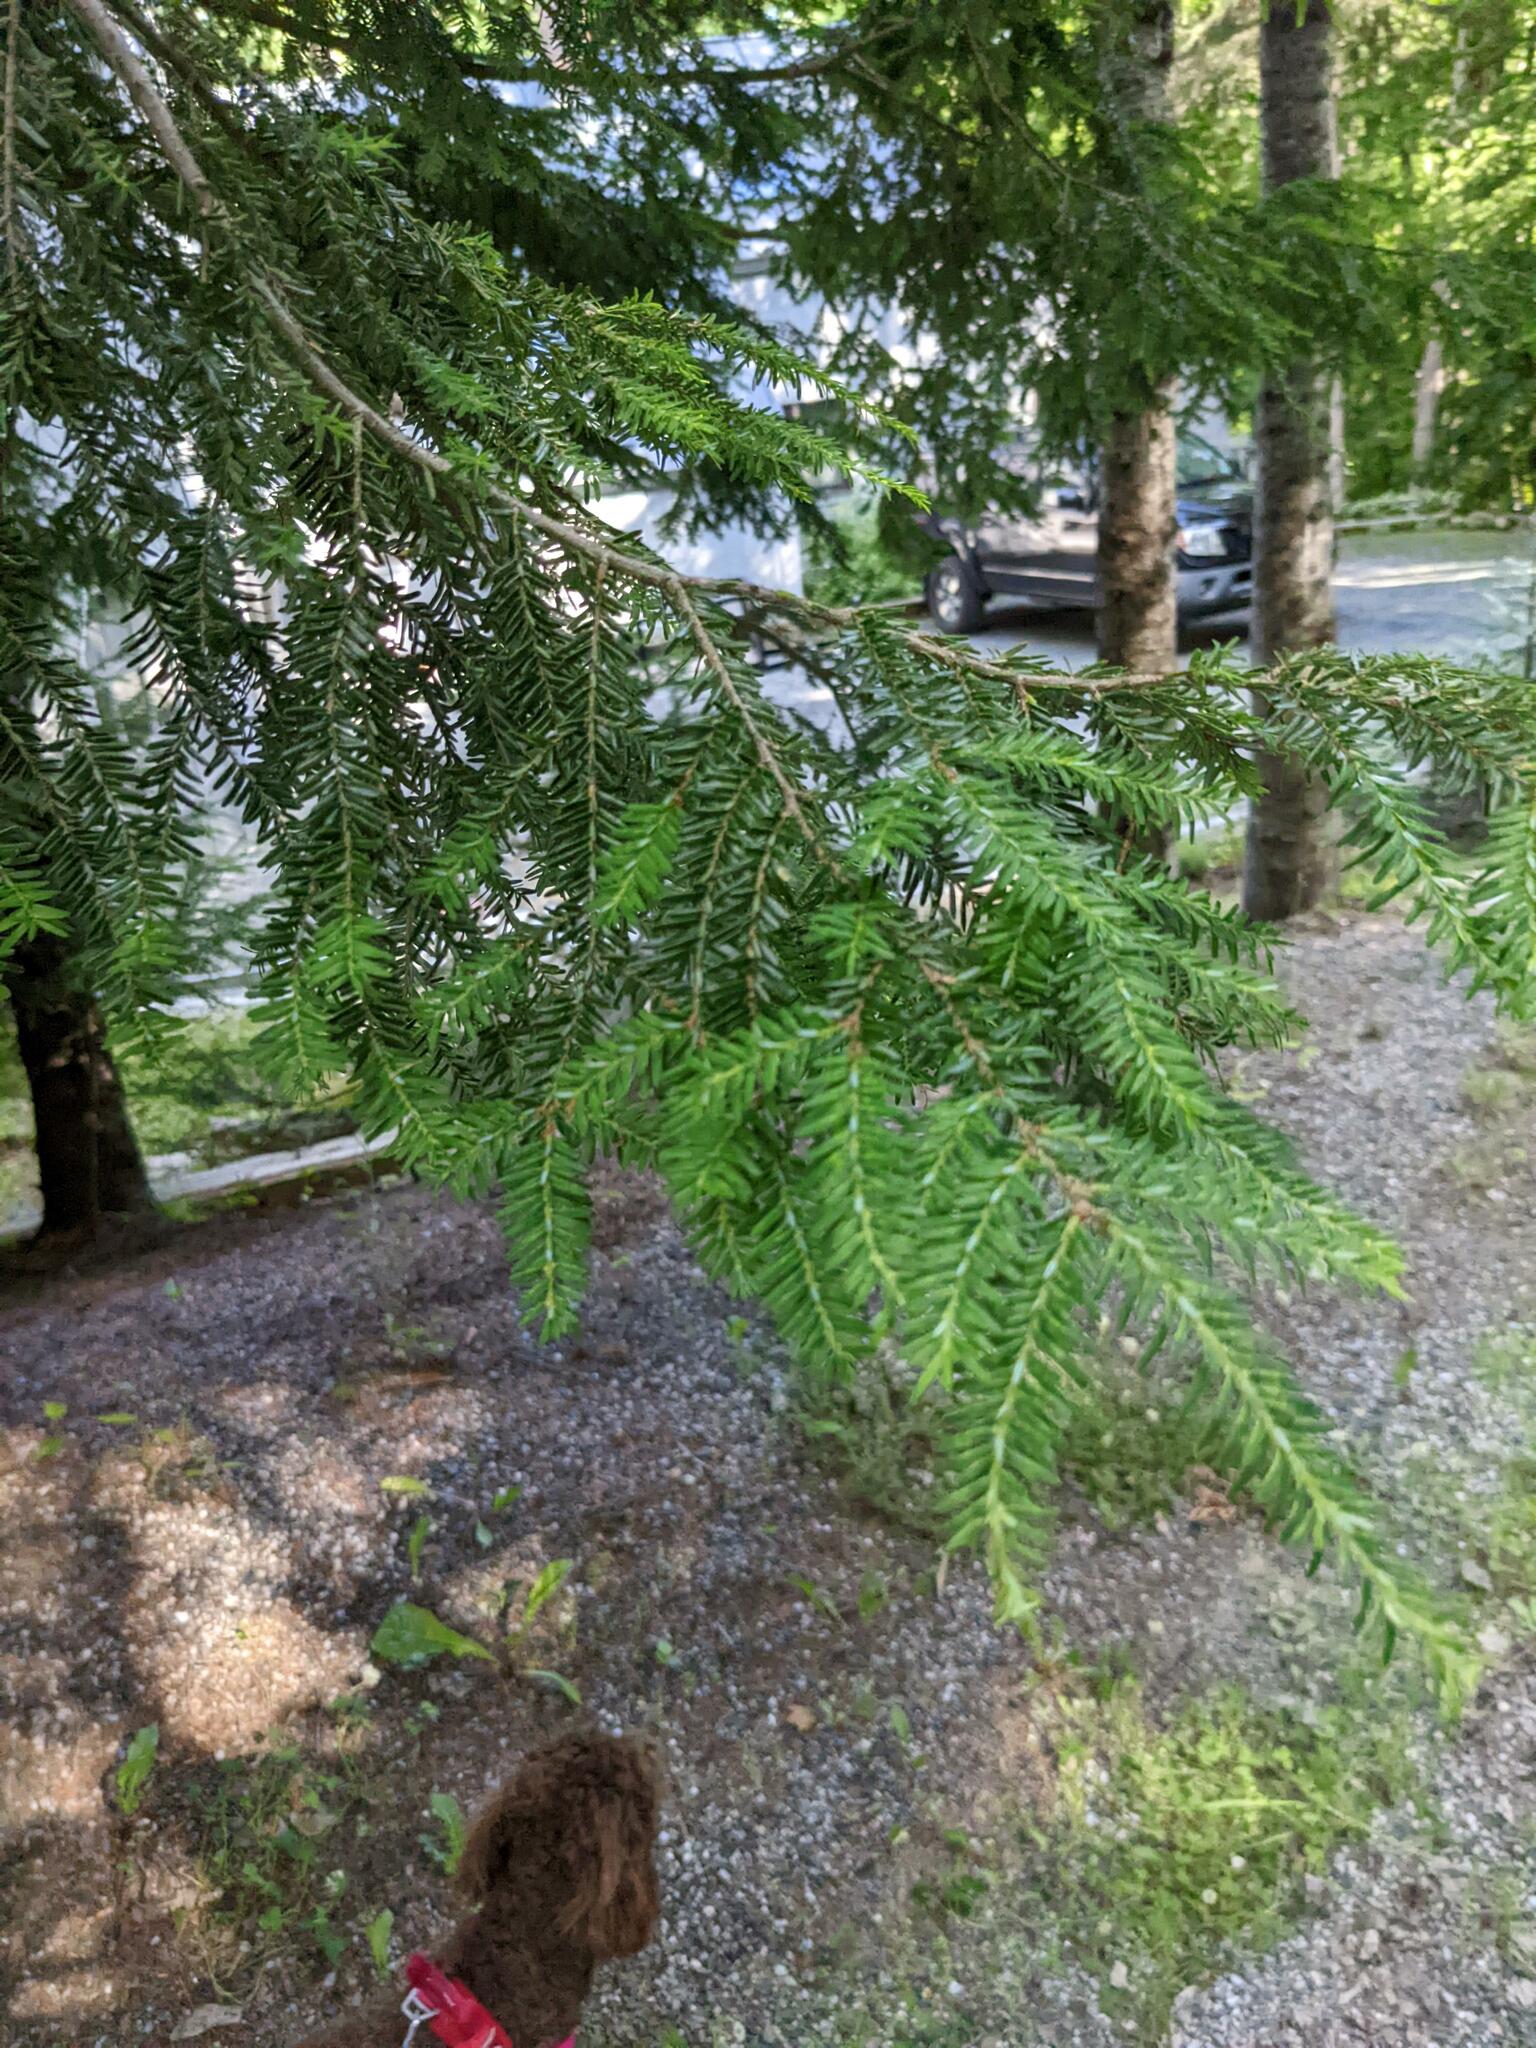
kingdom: Plantae
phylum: Tracheophyta
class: Pinopsida
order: Pinales
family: Pinaceae
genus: Tsuga
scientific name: Tsuga canadensis
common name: Eastern hemlock
